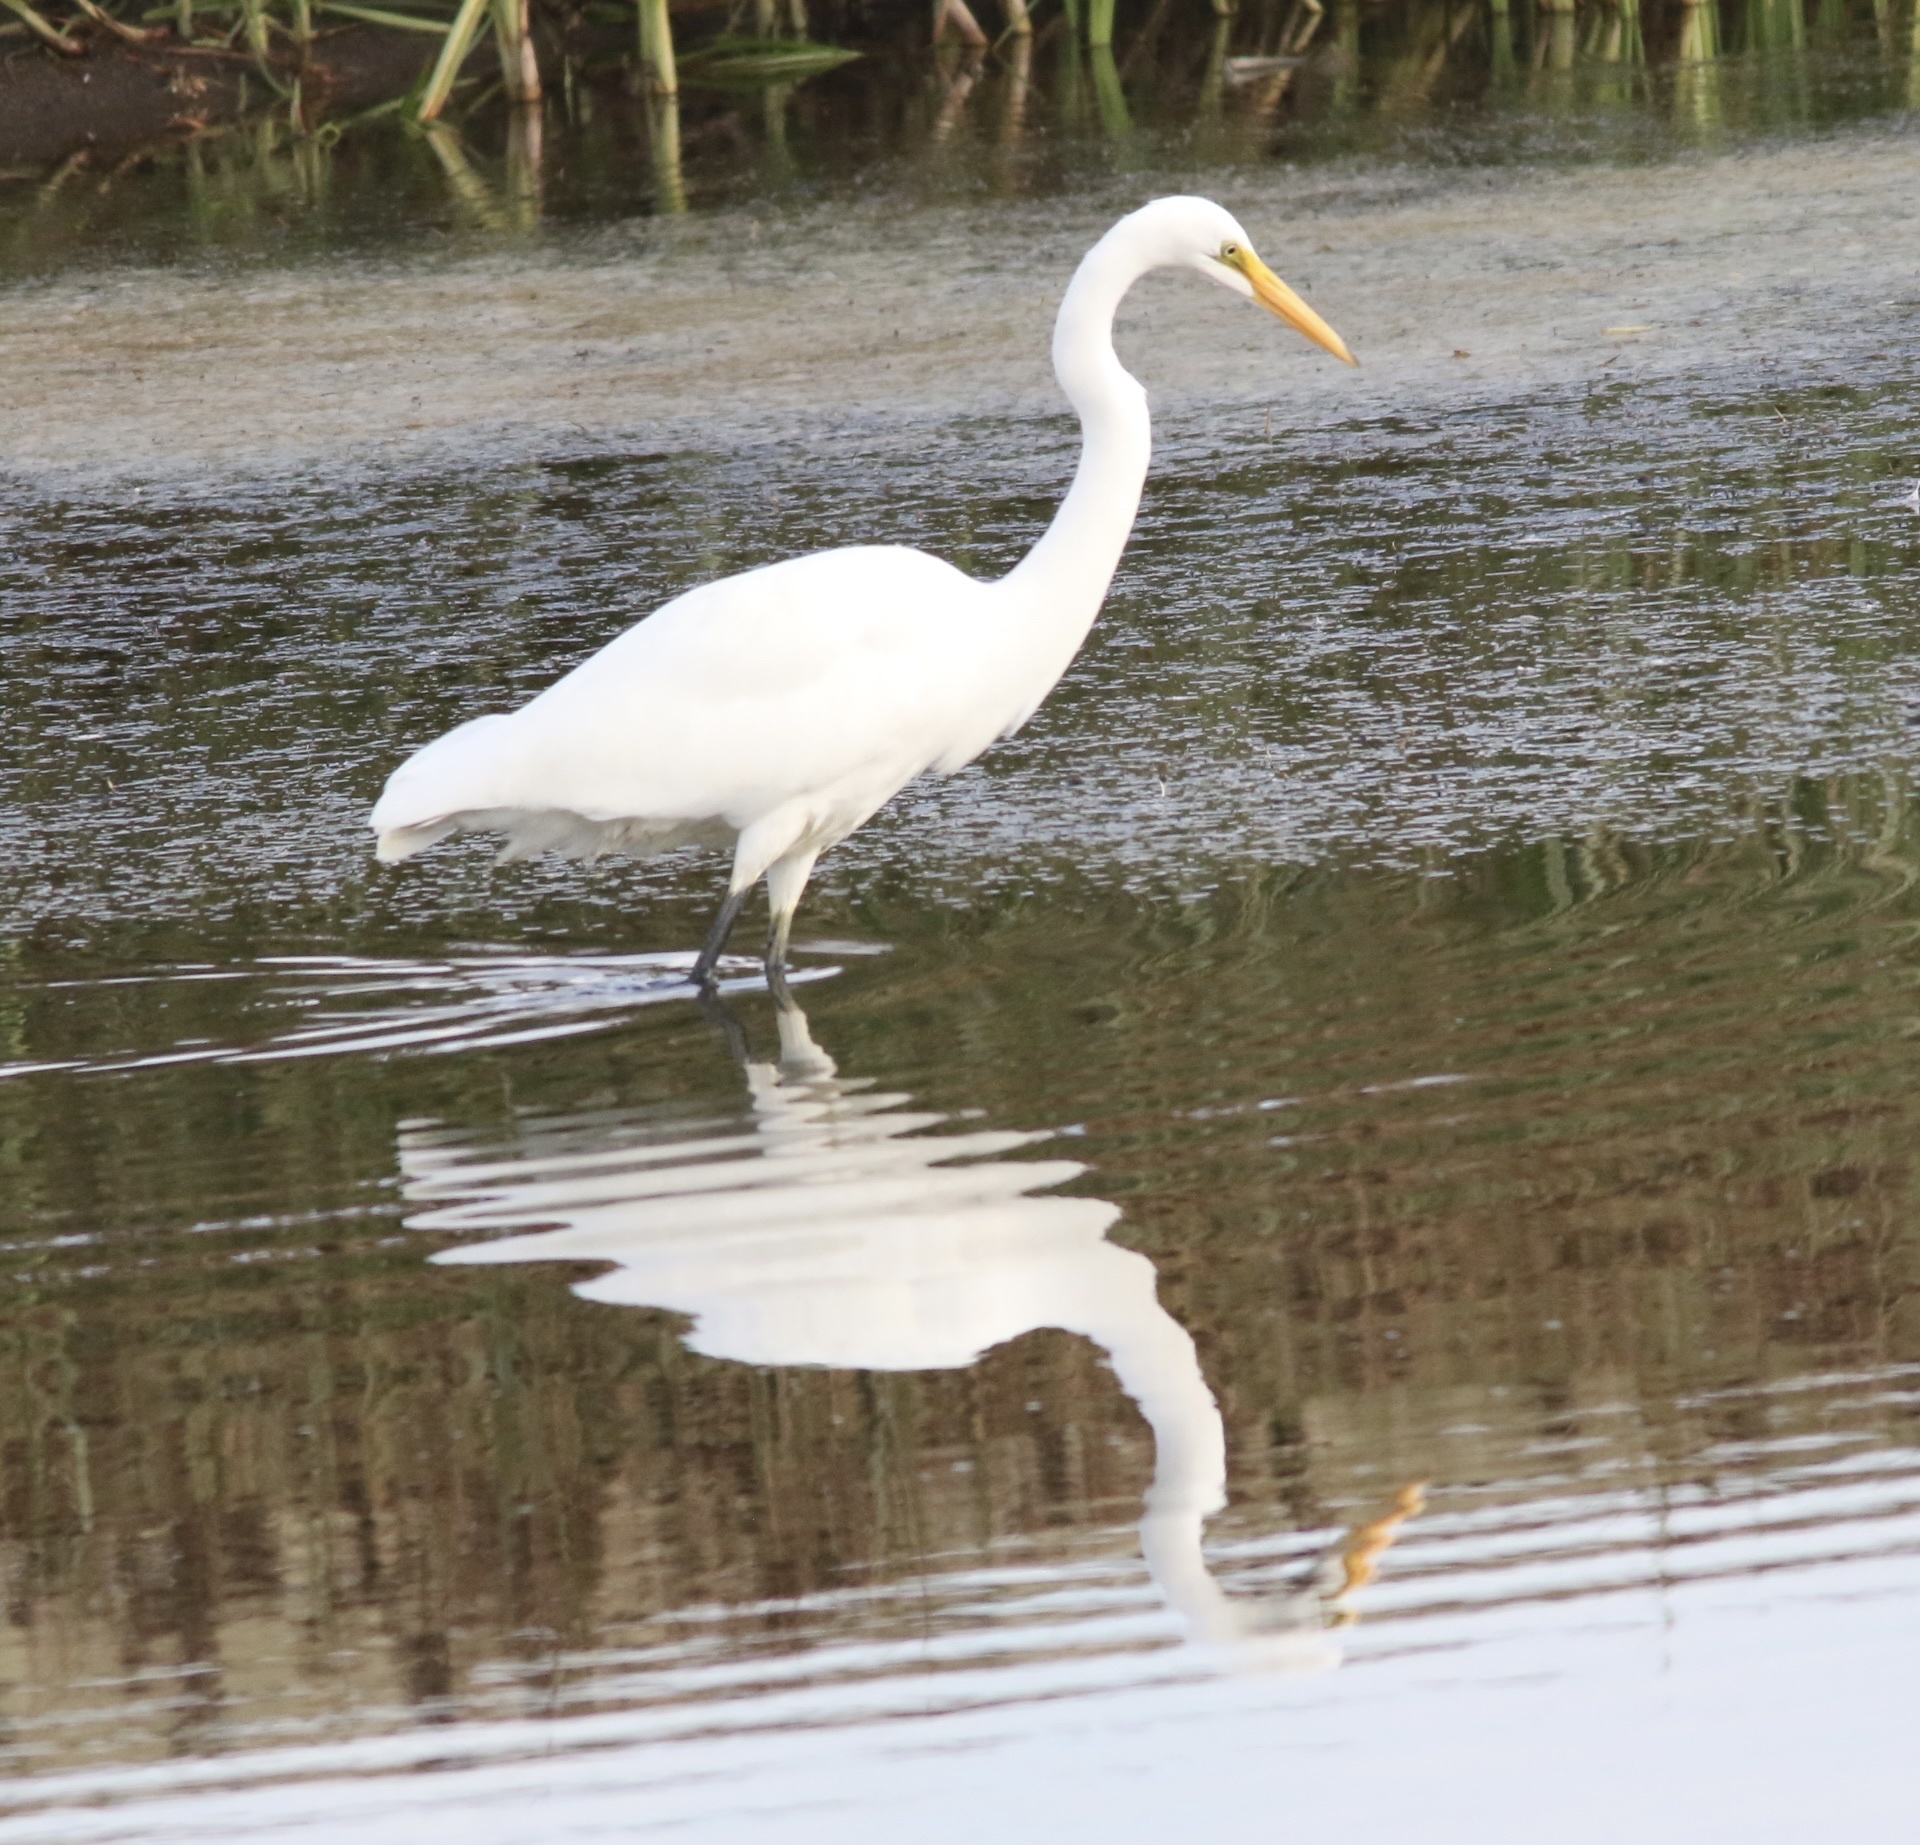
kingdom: Animalia
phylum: Chordata
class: Aves
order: Pelecaniformes
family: Ardeidae
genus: Ardea
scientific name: Ardea alba
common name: Great egret
